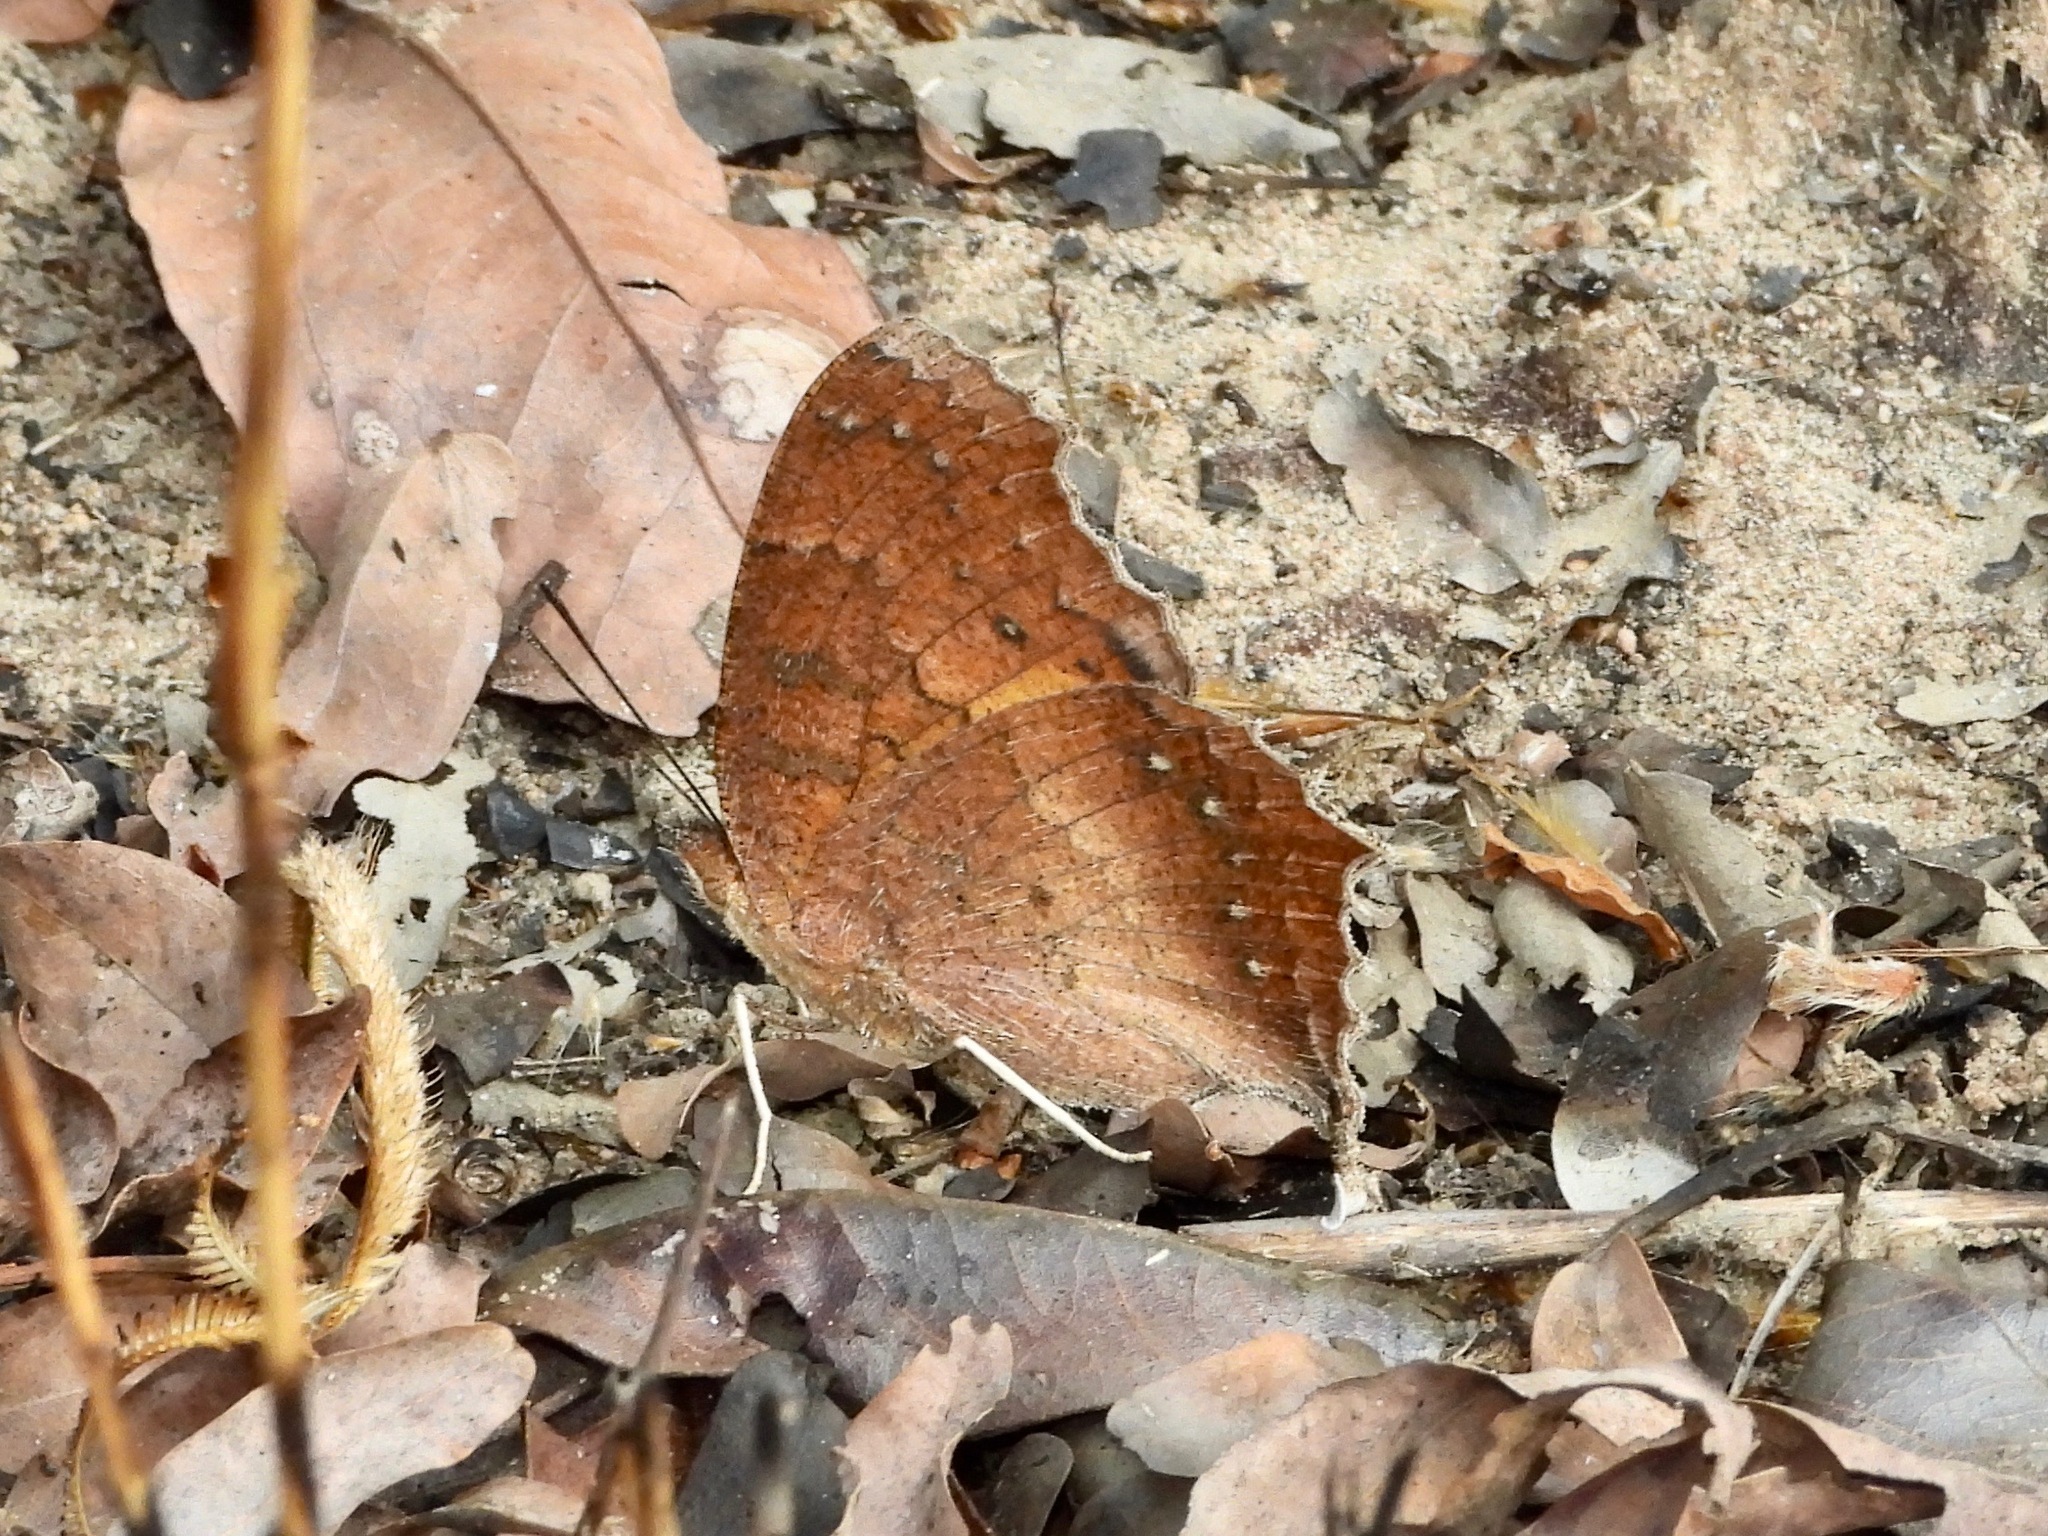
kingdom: Animalia
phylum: Arthropoda
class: Insecta
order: Lepidoptera
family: Nymphalidae
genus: Catacroptera
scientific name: Catacroptera cloanthe
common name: Pirate
